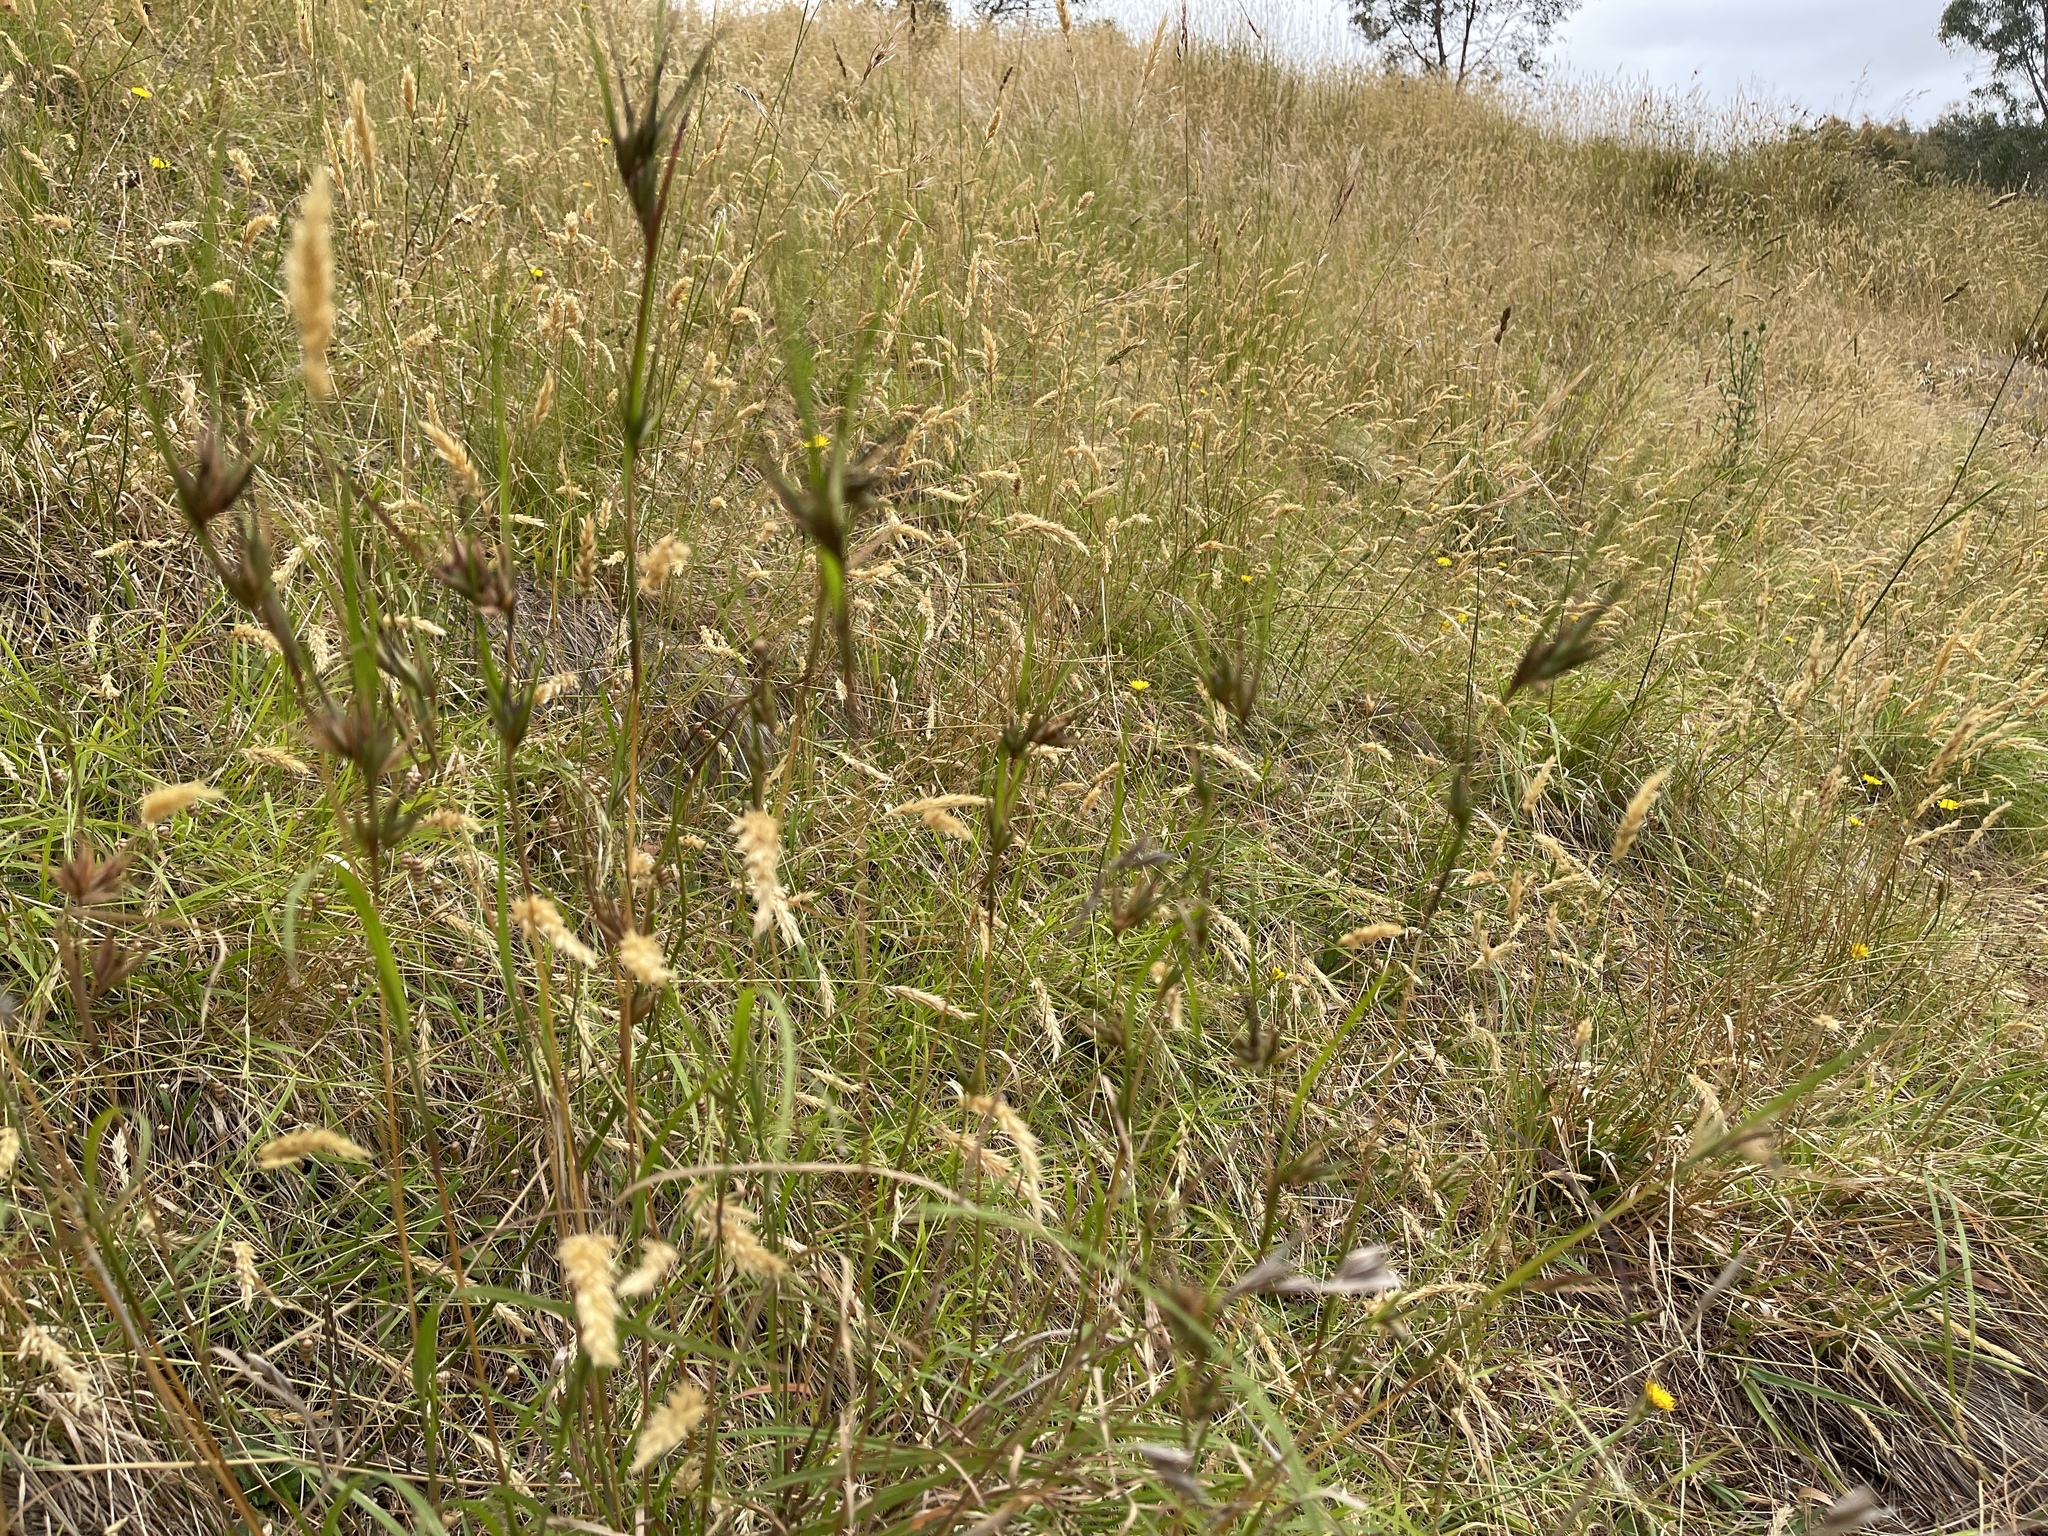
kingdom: Plantae
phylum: Tracheophyta
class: Liliopsida
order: Poales
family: Poaceae
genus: Themeda
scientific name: Themeda triandra
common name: Kangaroo grass
